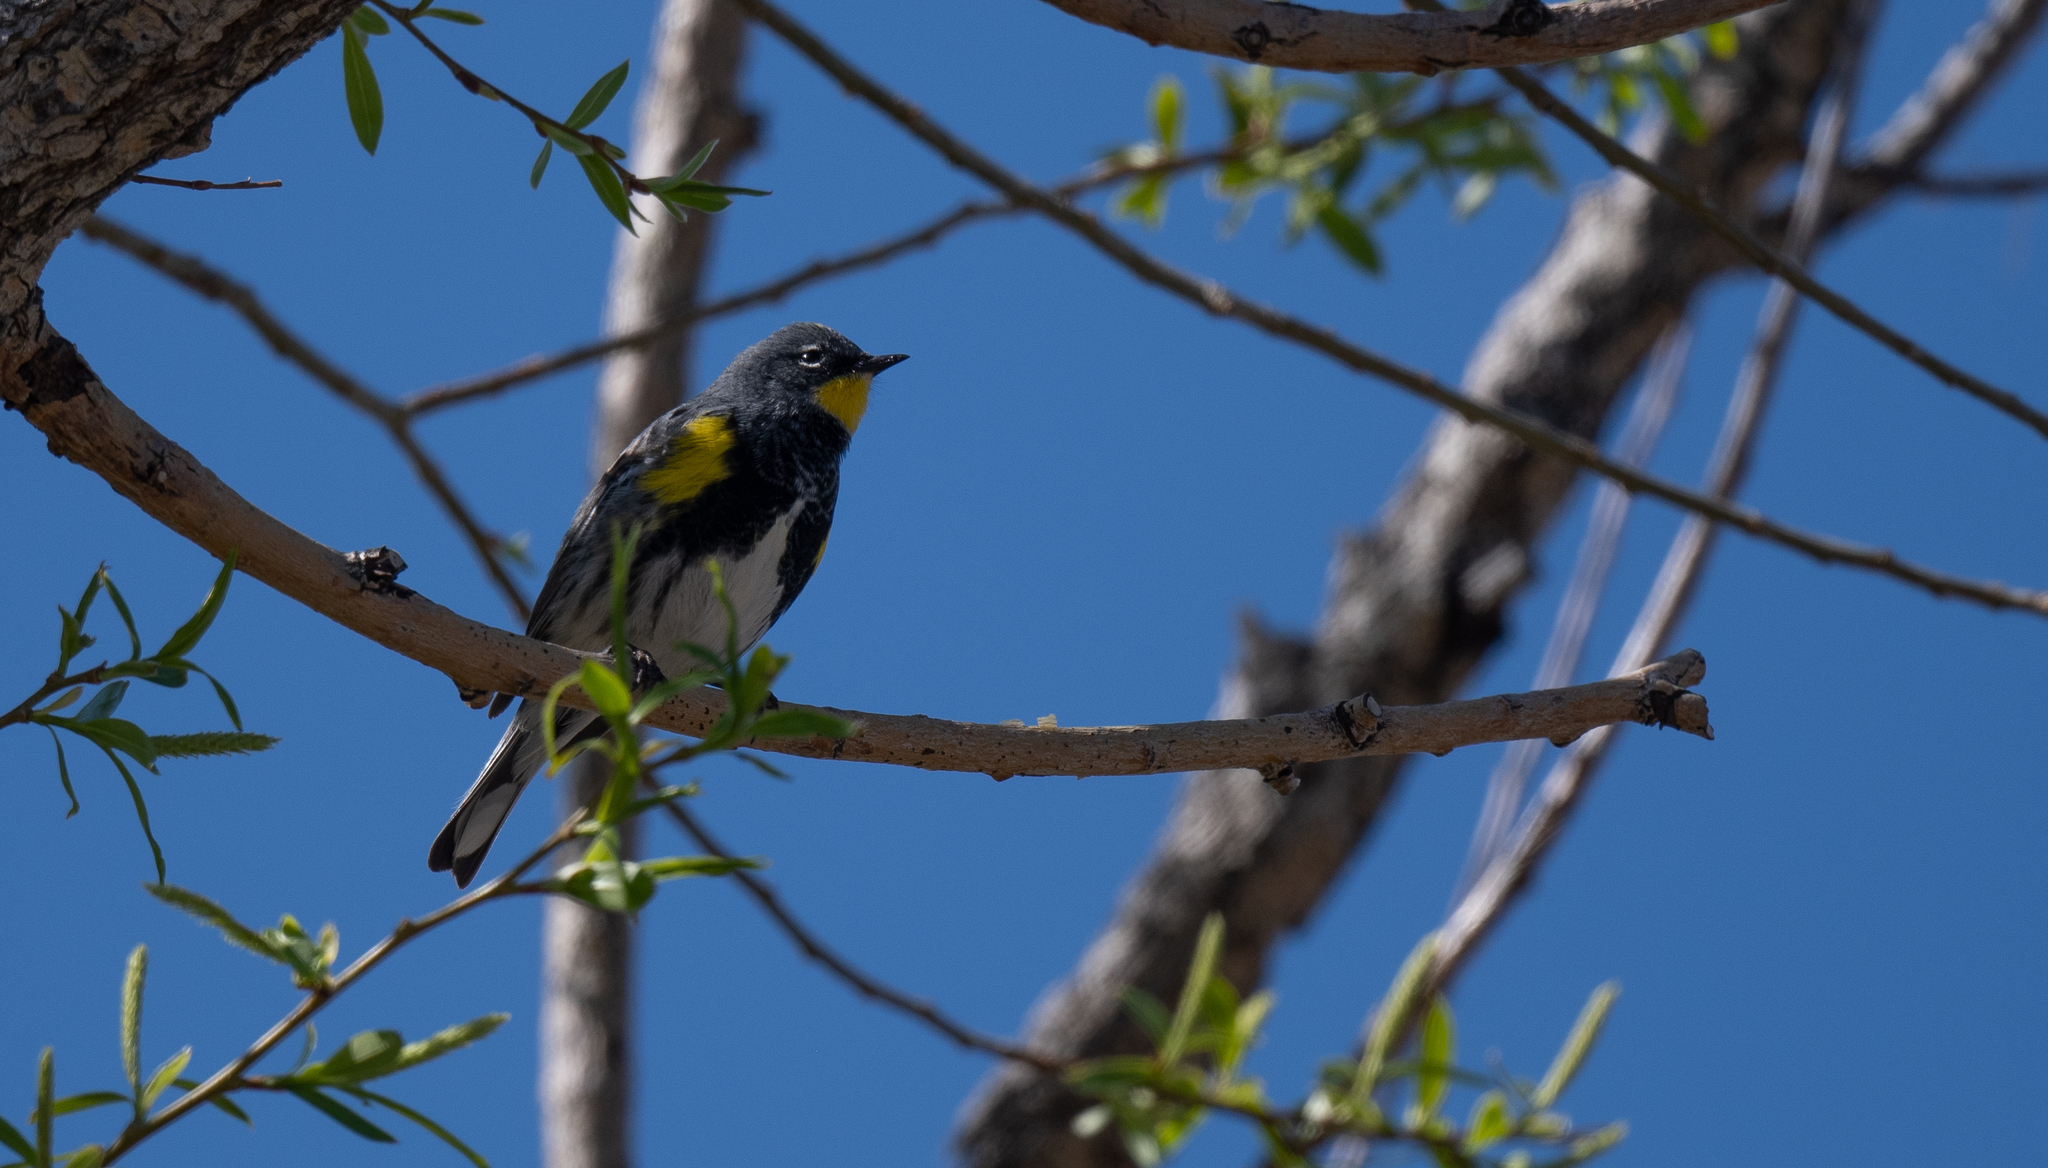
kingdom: Animalia
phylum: Chordata
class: Aves
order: Passeriformes
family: Parulidae
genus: Setophaga
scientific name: Setophaga coronata
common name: Myrtle warbler
